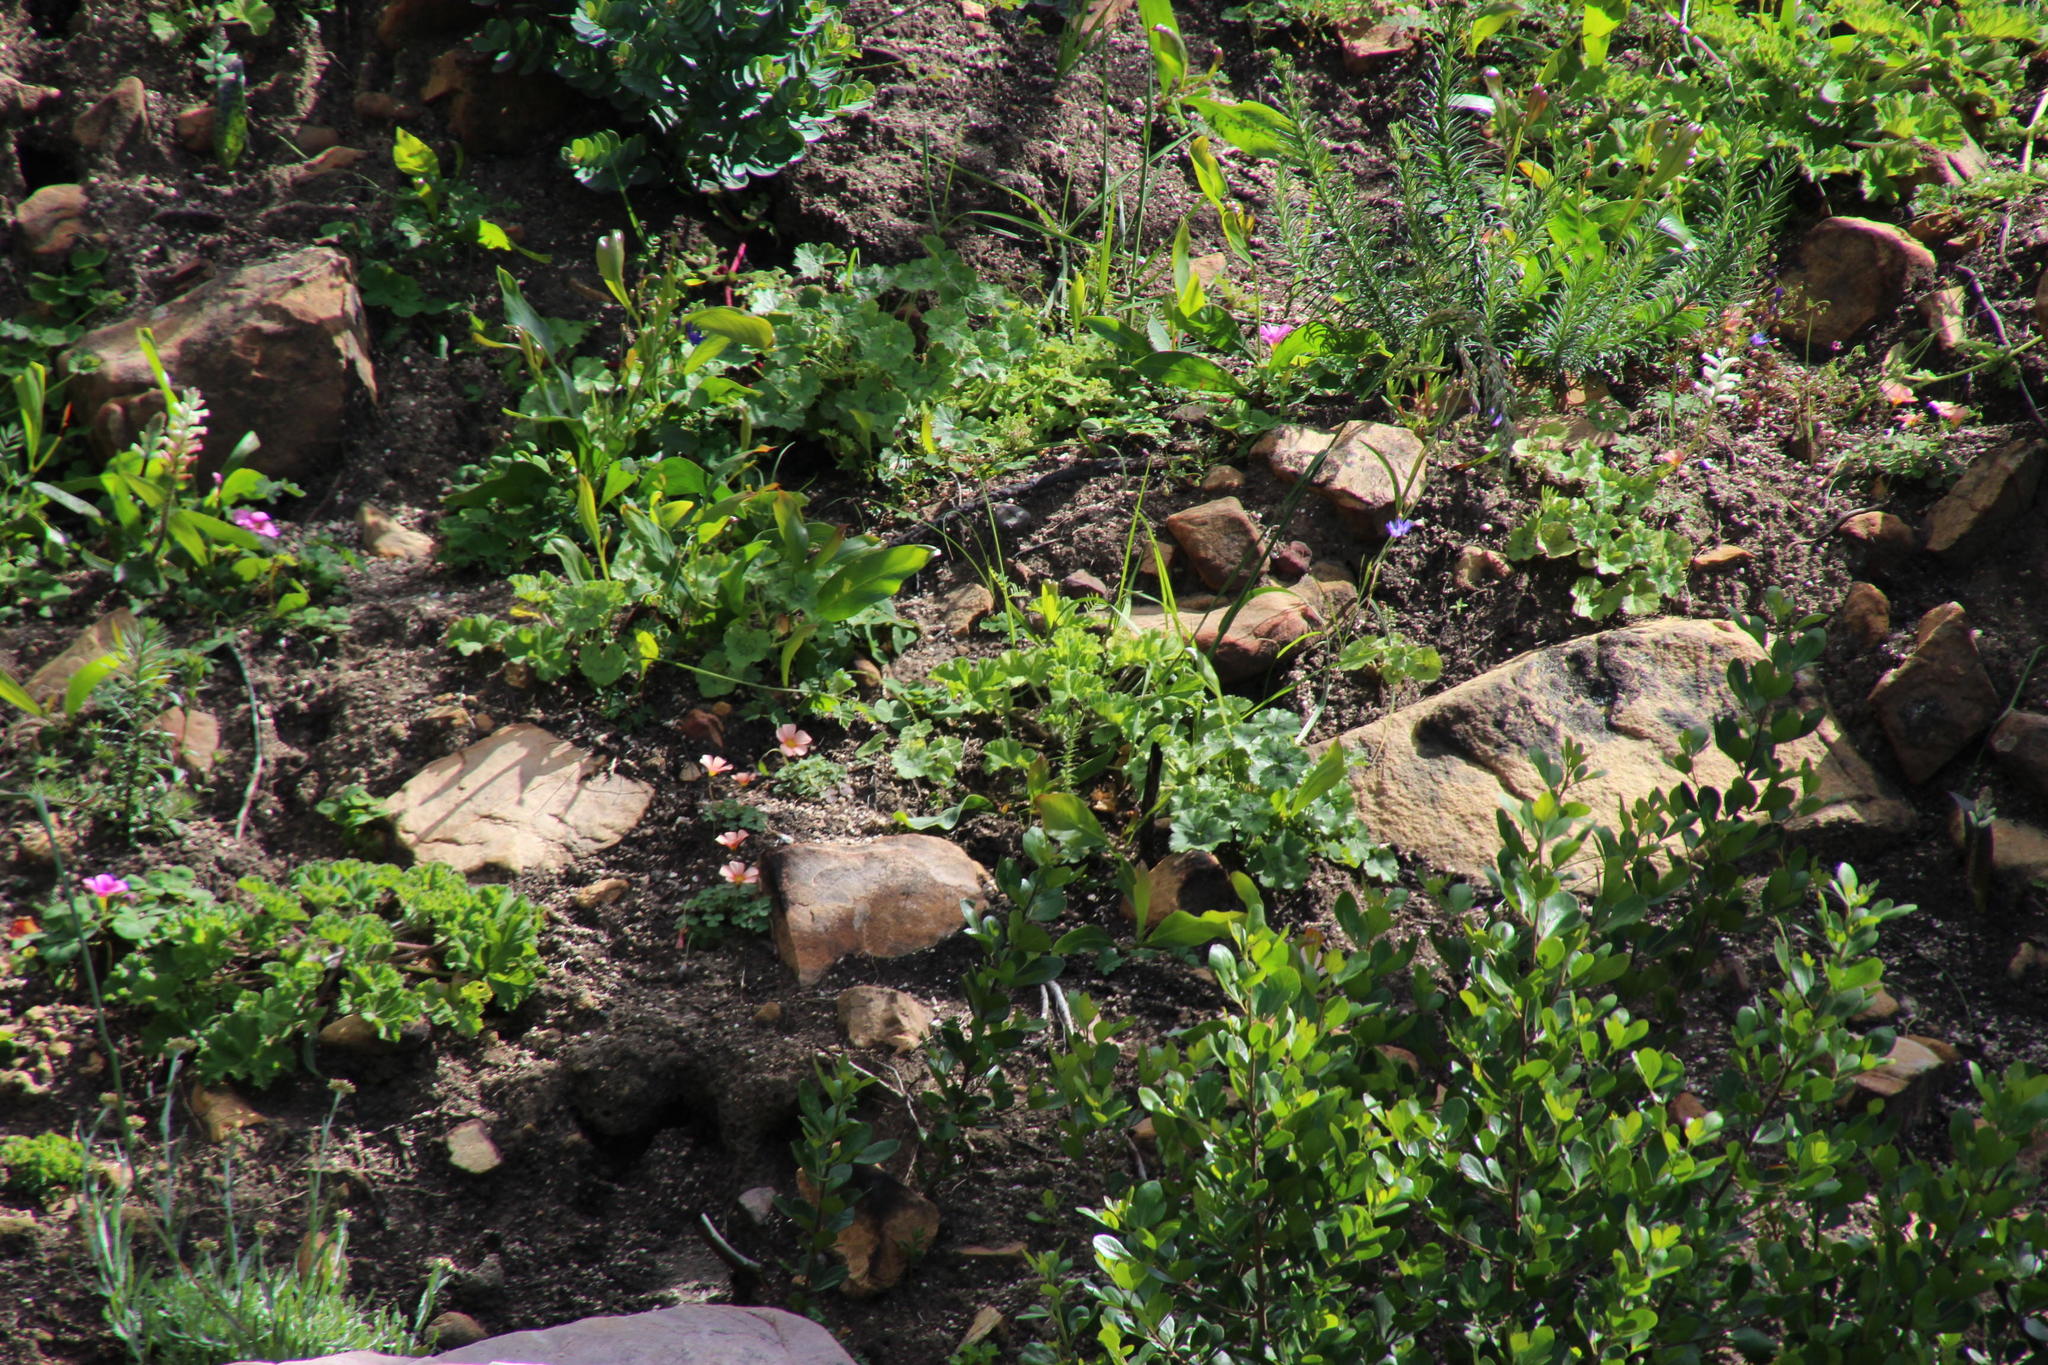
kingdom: Plantae
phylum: Tracheophyta
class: Magnoliopsida
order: Oxalidales
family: Oxalidaceae
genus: Oxalis
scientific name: Oxalis purpurea
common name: Purple woodsorrel
